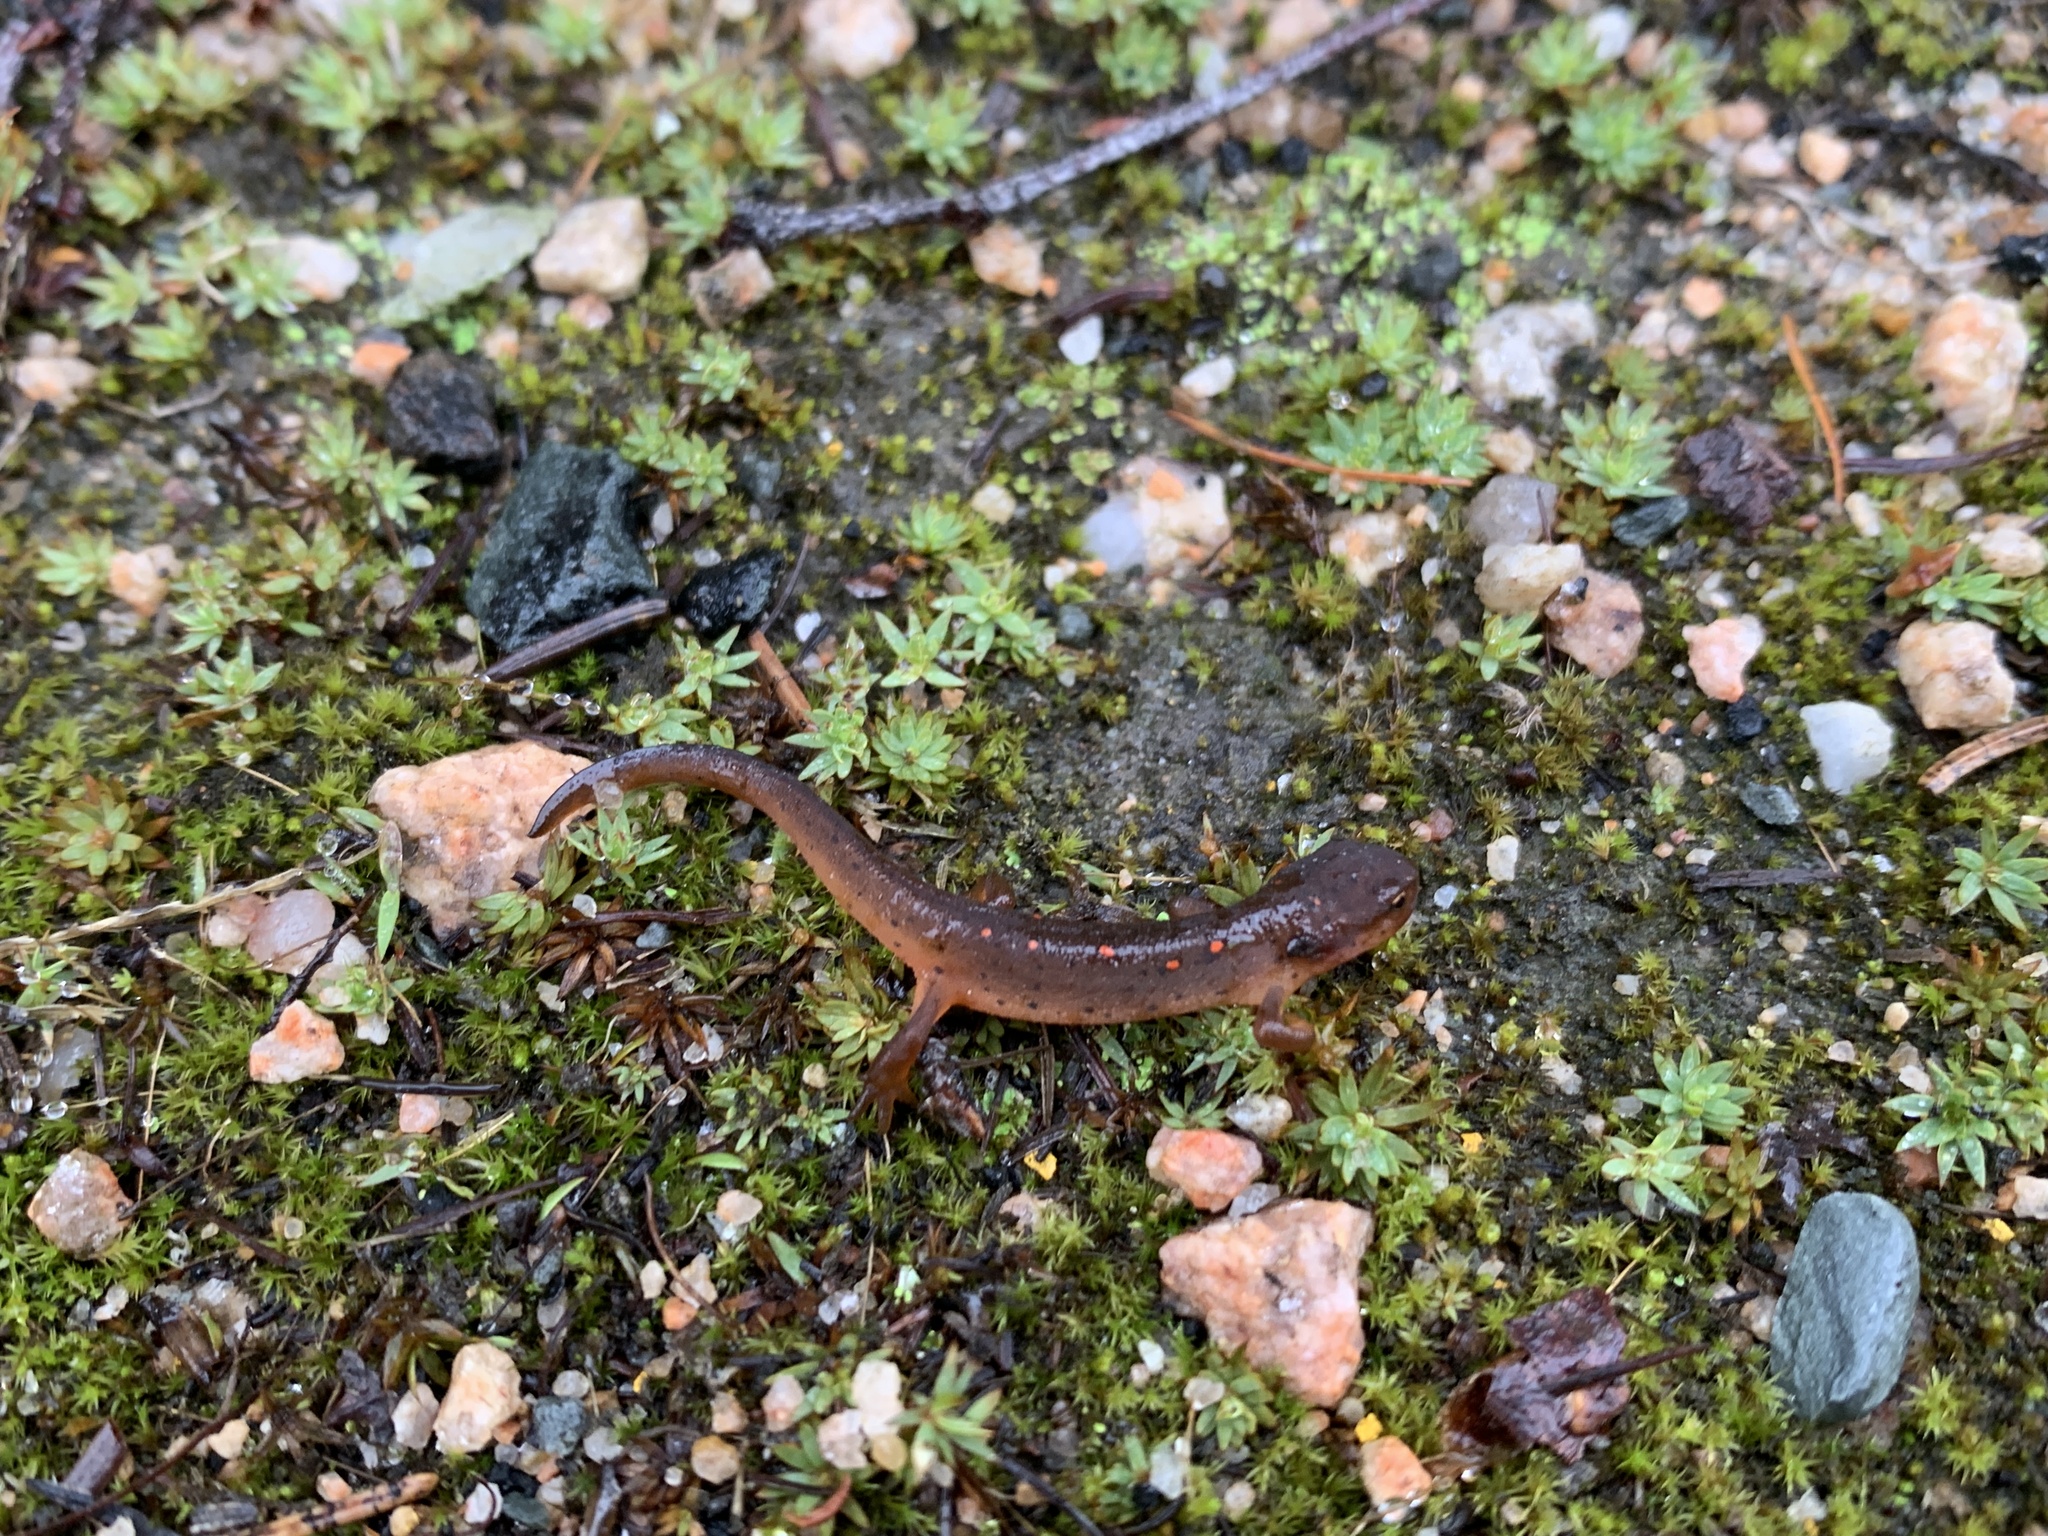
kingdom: Animalia
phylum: Chordata
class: Amphibia
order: Caudata
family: Salamandridae
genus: Notophthalmus
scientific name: Notophthalmus viridescens
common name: Eastern newt
